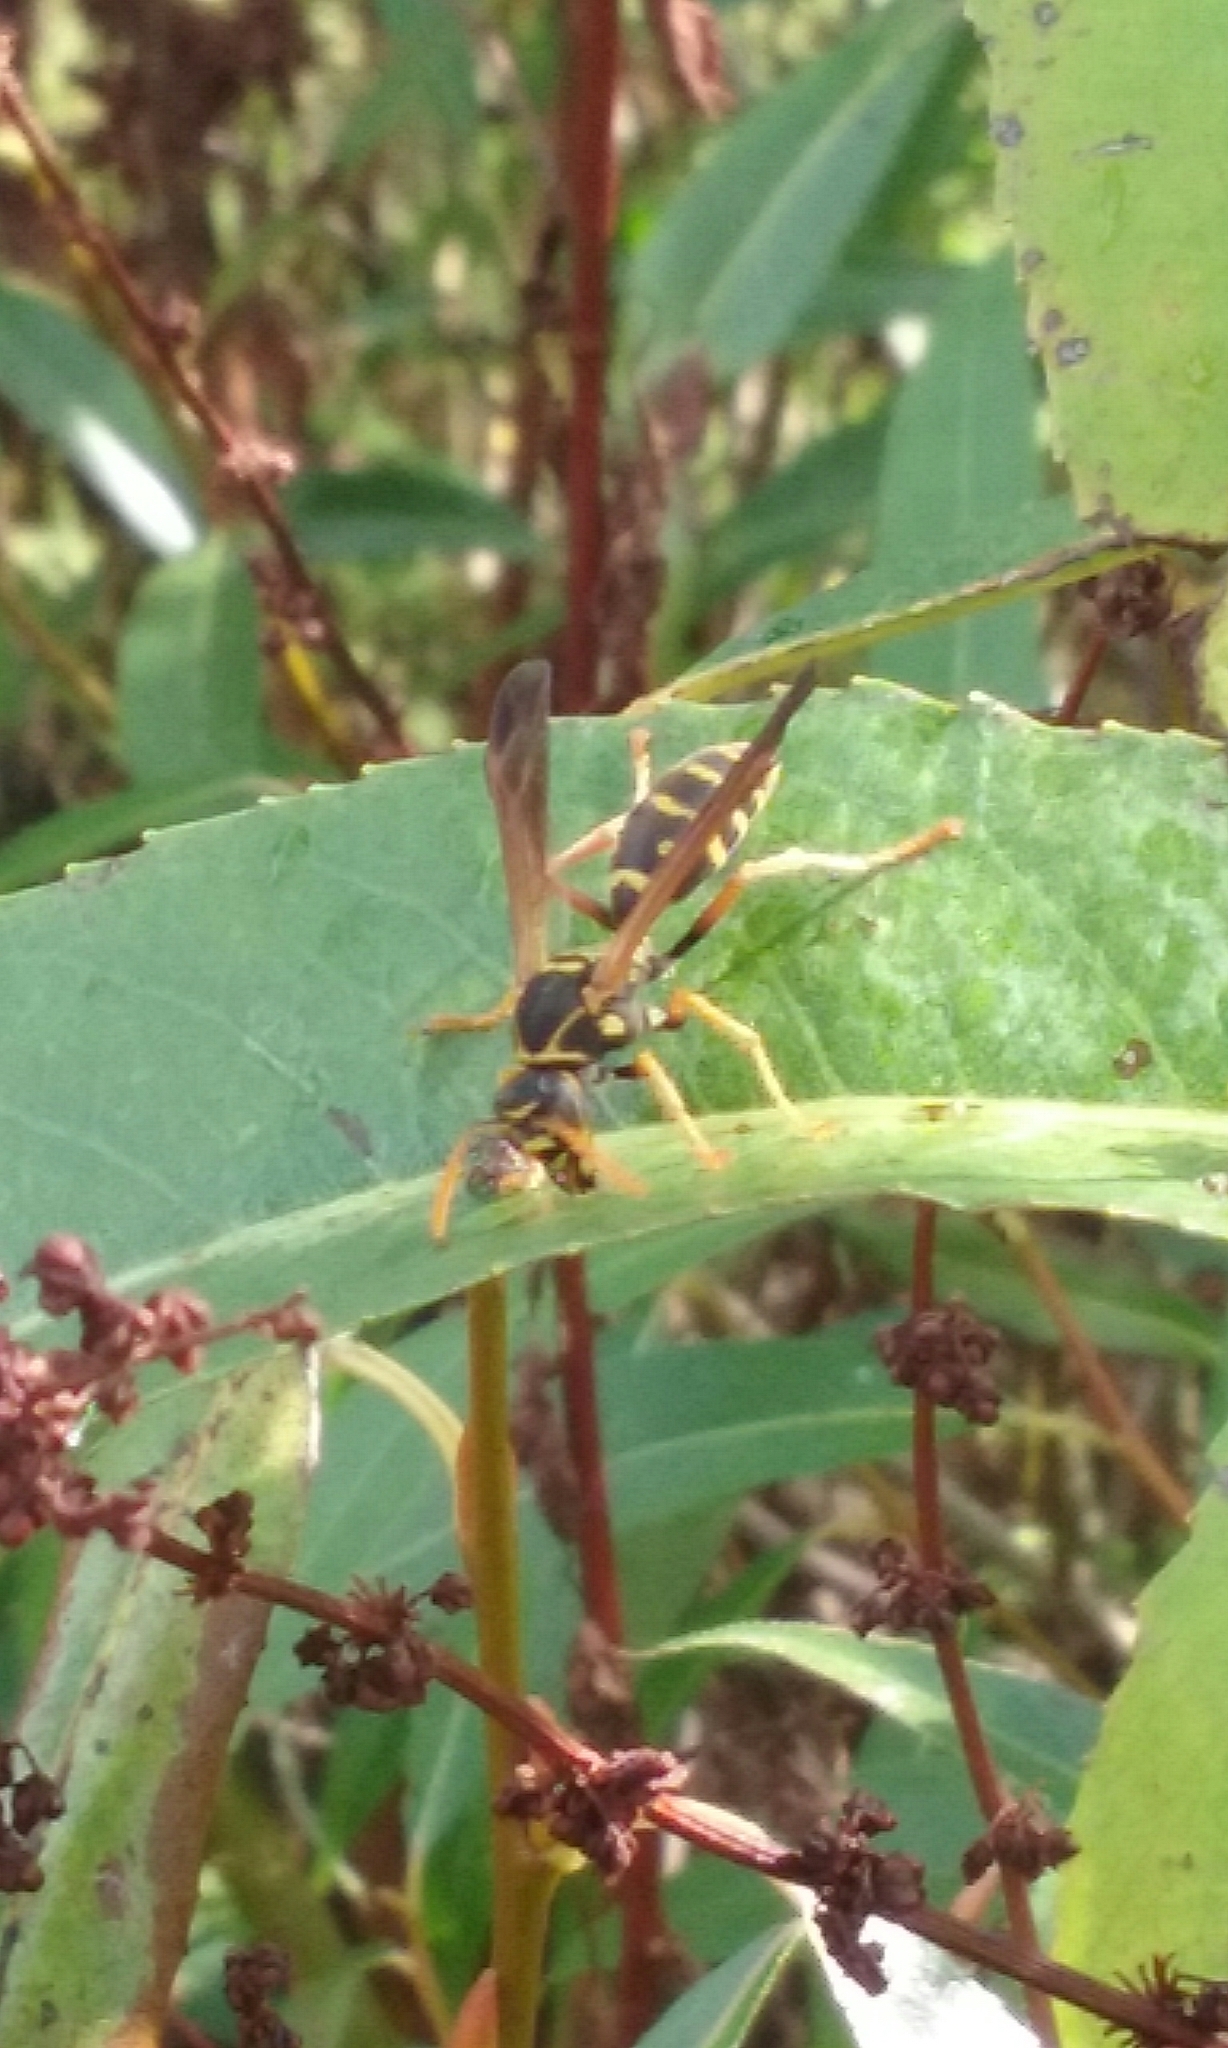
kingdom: Animalia
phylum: Arthropoda
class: Insecta
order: Hymenoptera
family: Eumenidae
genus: Polistes
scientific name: Polistes chinensis
